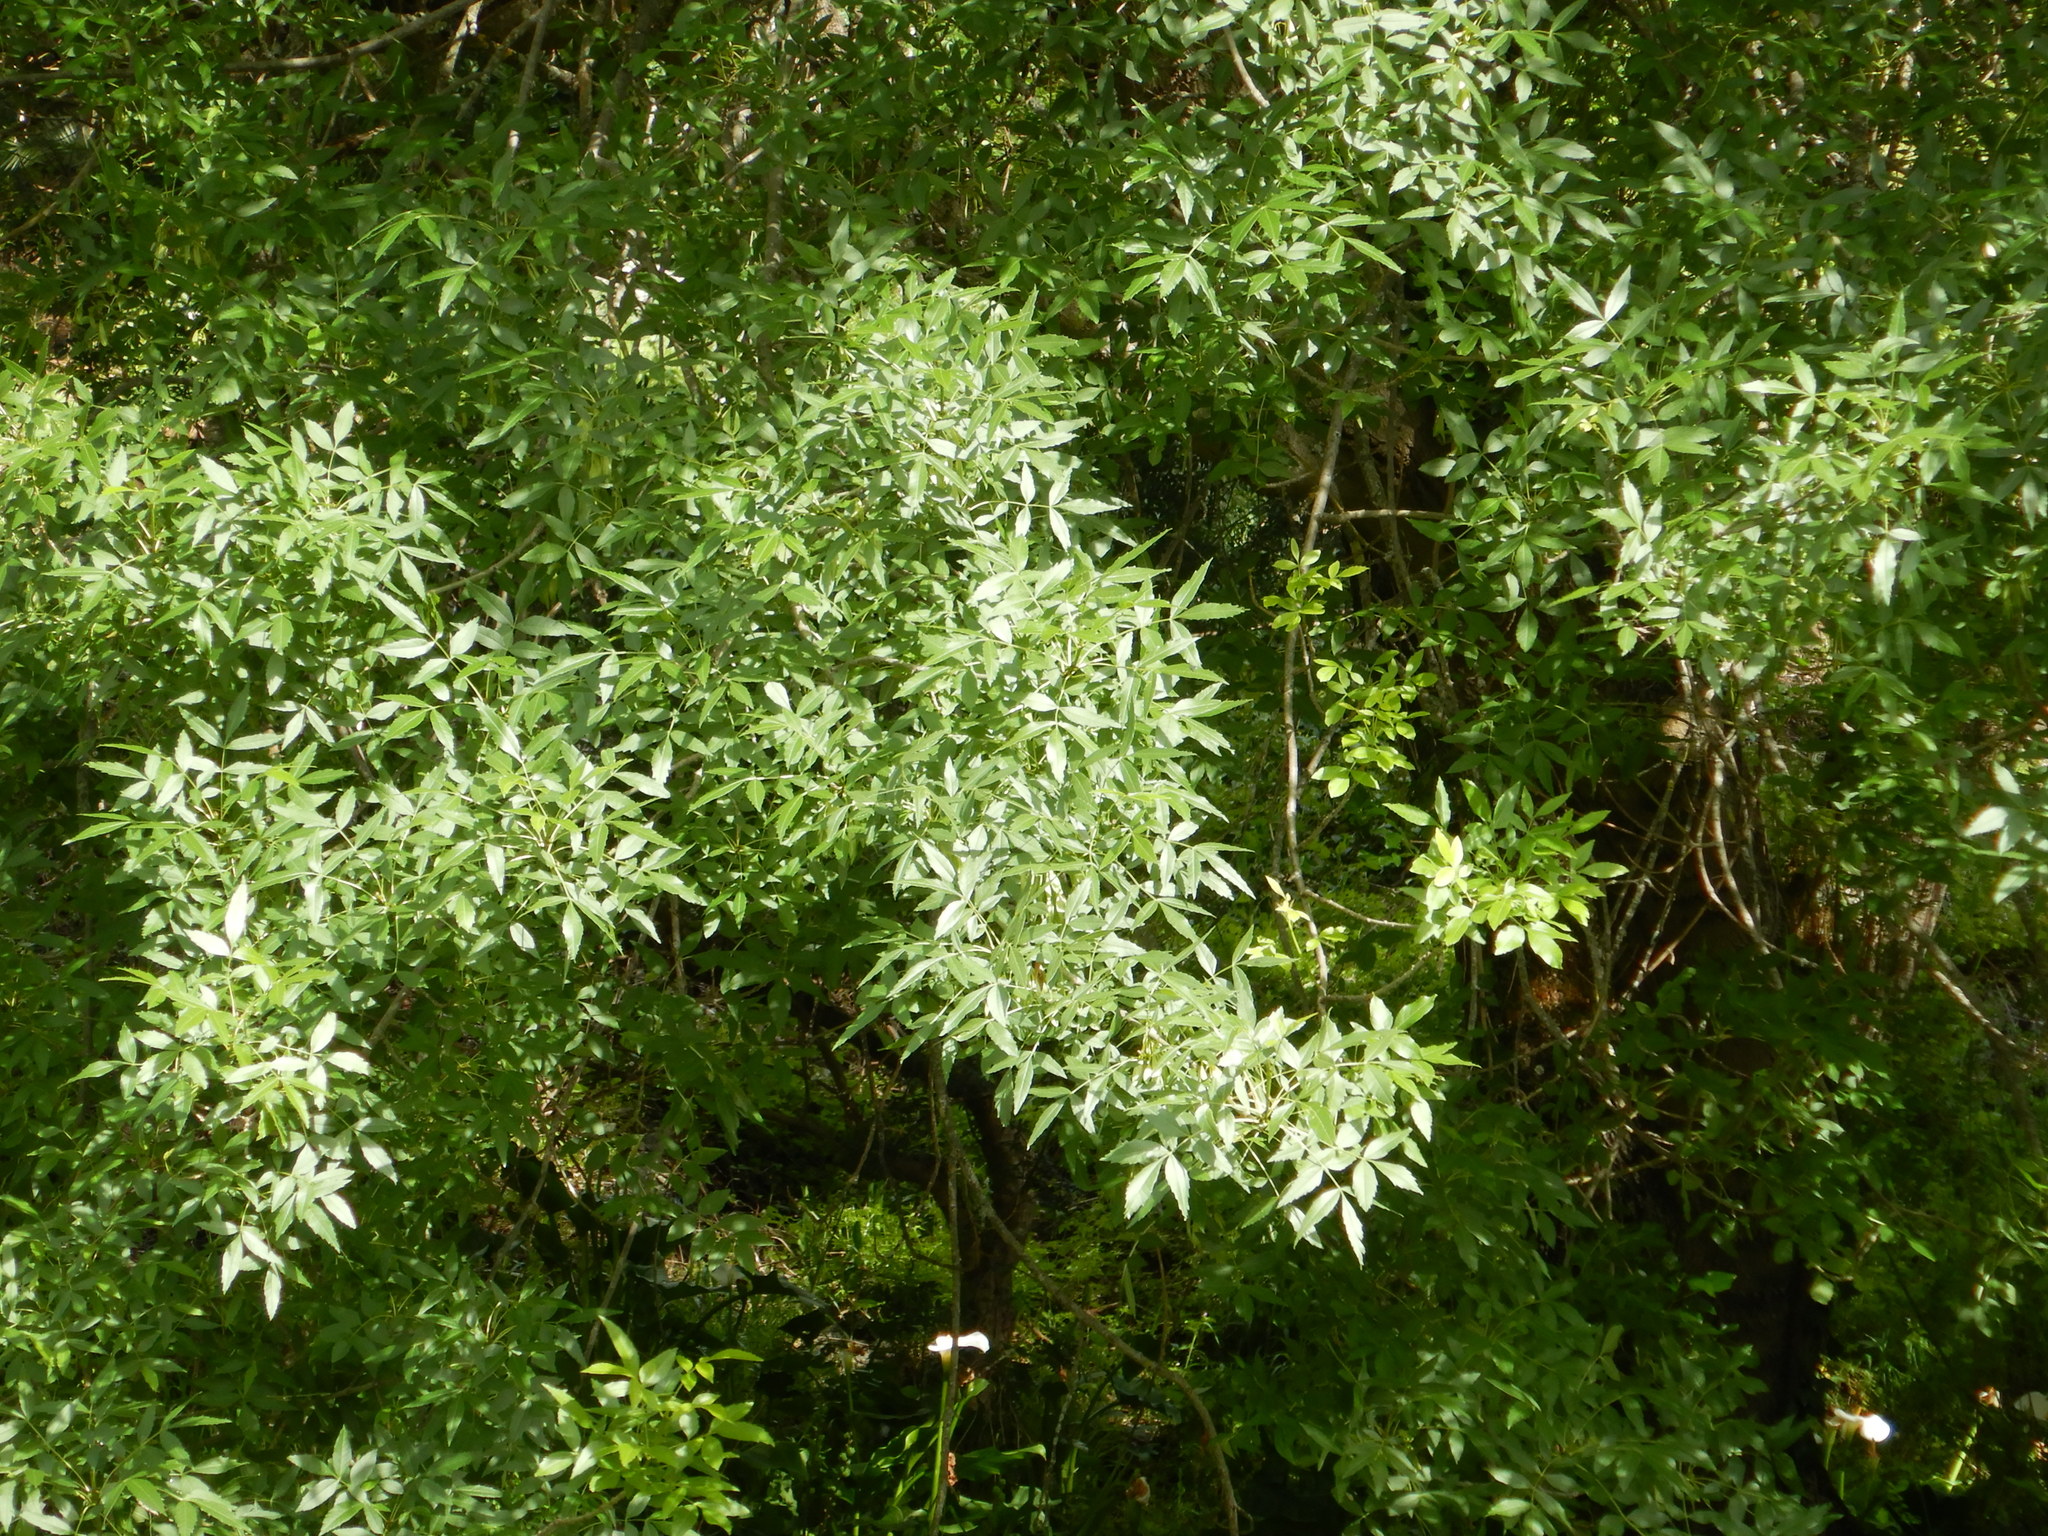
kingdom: Plantae
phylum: Tracheophyta
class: Magnoliopsida
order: Lamiales
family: Oleaceae
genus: Fraxinus
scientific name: Fraxinus angustifolia
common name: Narrow-leafed ash
